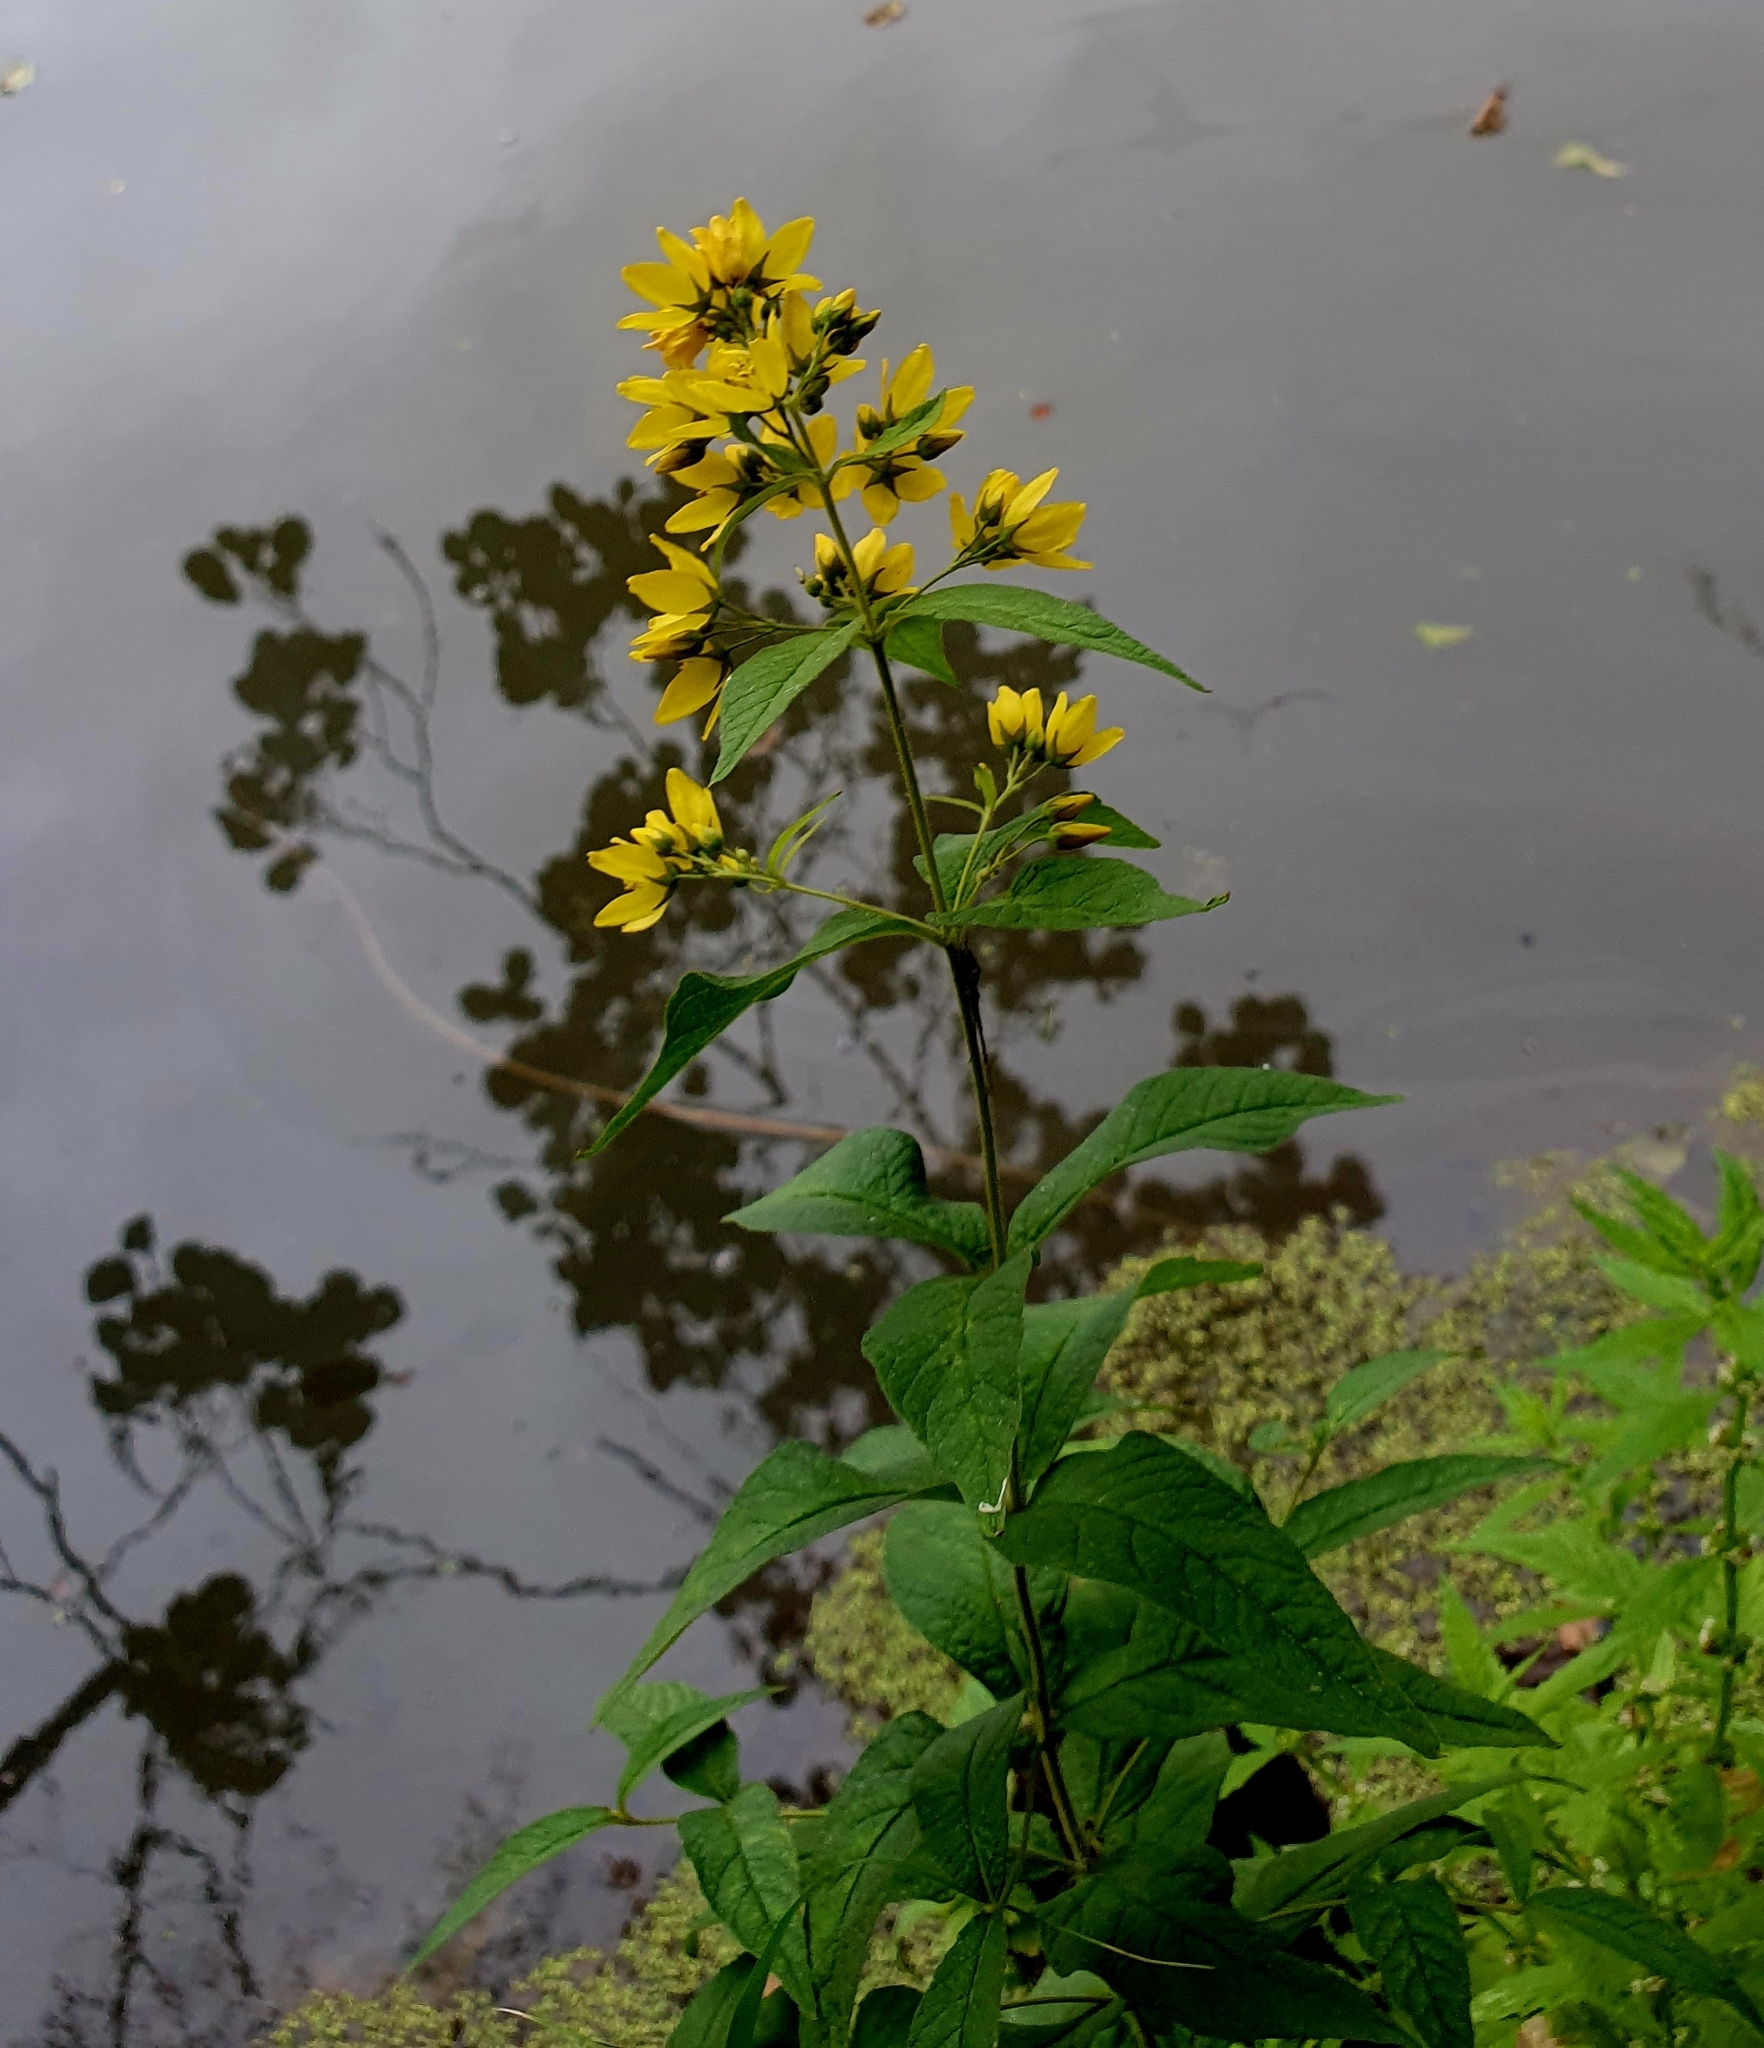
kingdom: Plantae
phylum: Tracheophyta
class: Magnoliopsida
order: Ericales
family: Primulaceae
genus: Lysimachia
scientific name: Lysimachia vulgaris
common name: Yellow loosestrife
